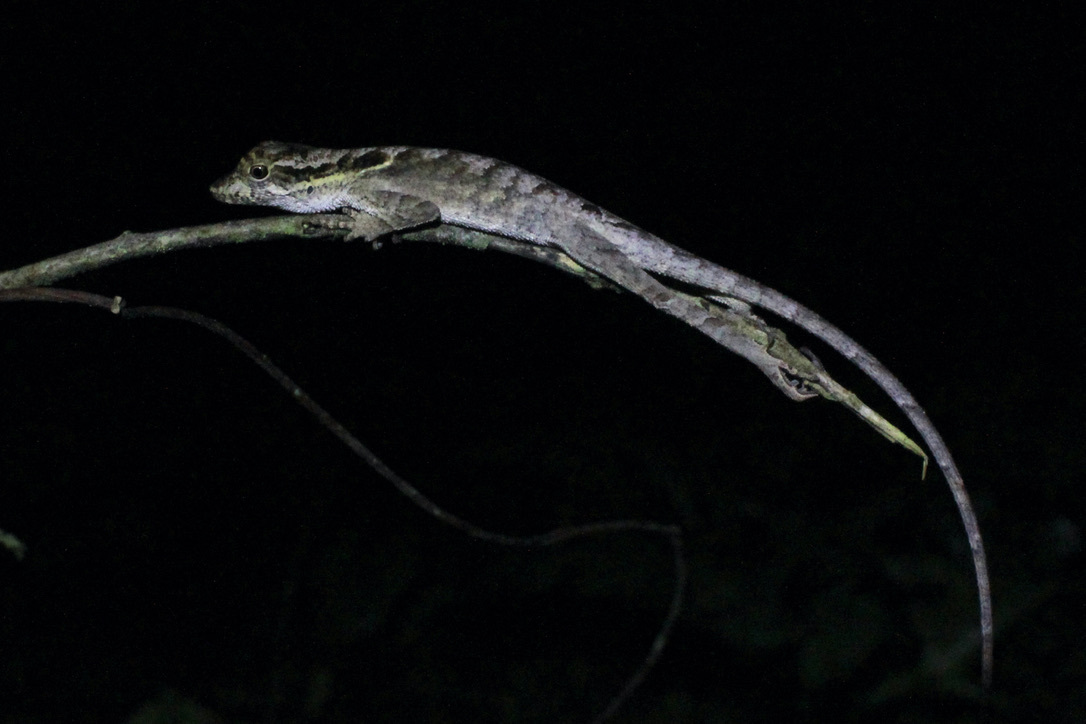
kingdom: Animalia
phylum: Chordata
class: Squamata
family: Dactyloidae
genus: Anolis
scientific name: Anolis planiceps
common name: Goldenscale anole
